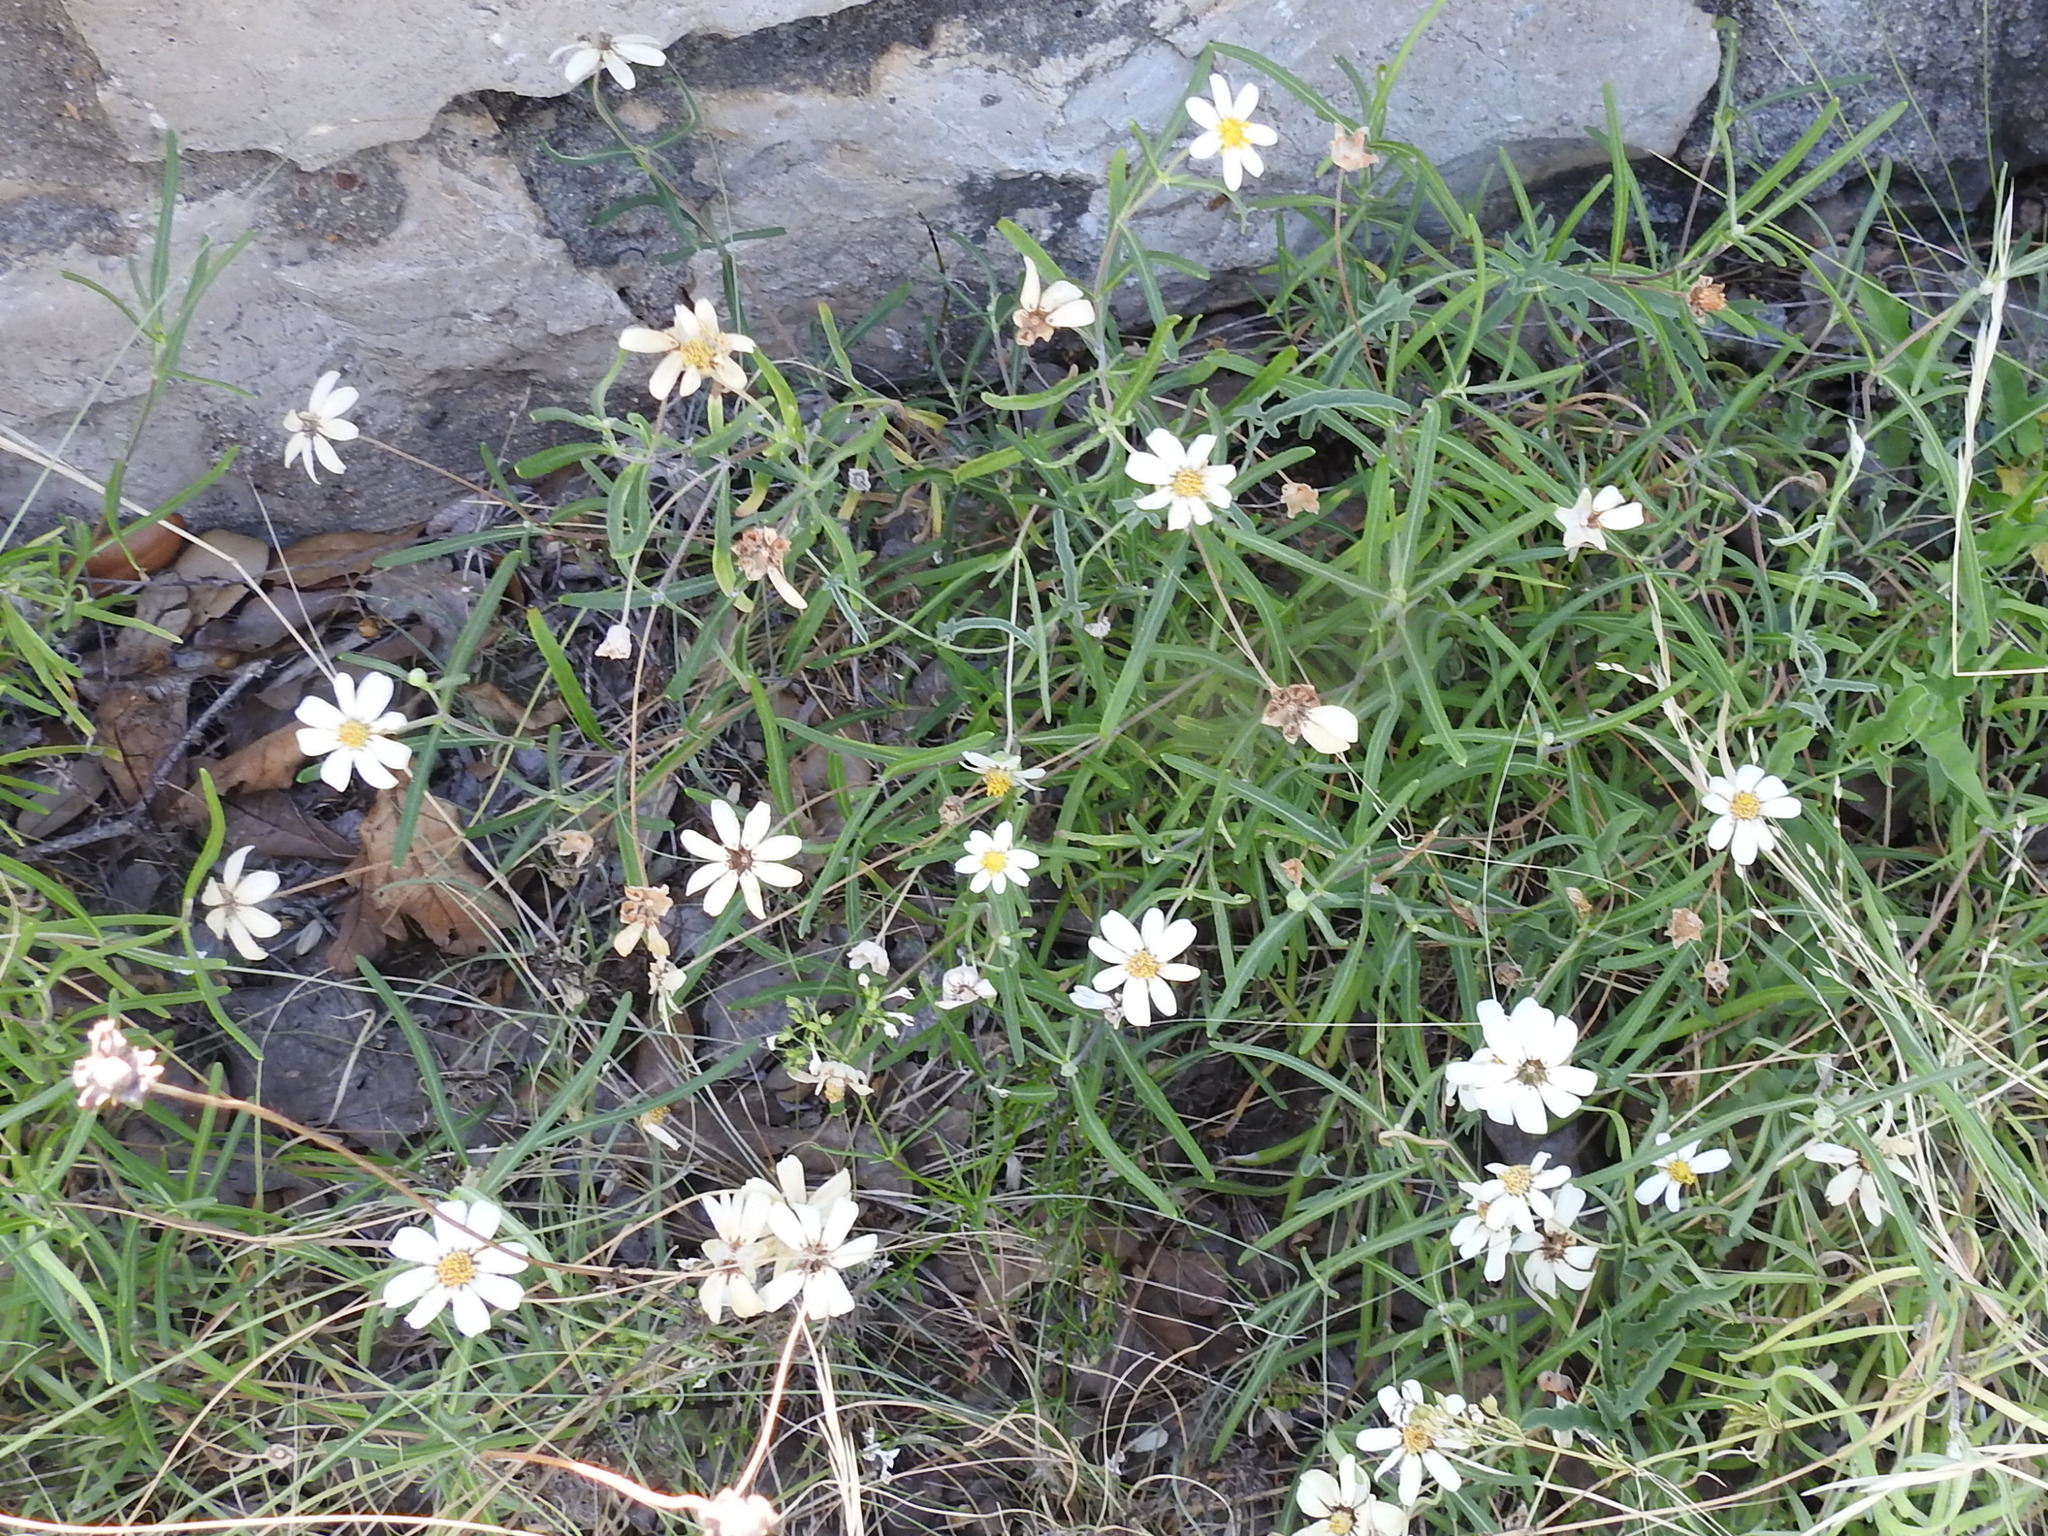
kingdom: Plantae
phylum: Tracheophyta
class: Magnoliopsida
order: Asterales
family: Asteraceae
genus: Melampodium
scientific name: Melampodium leucanthum
